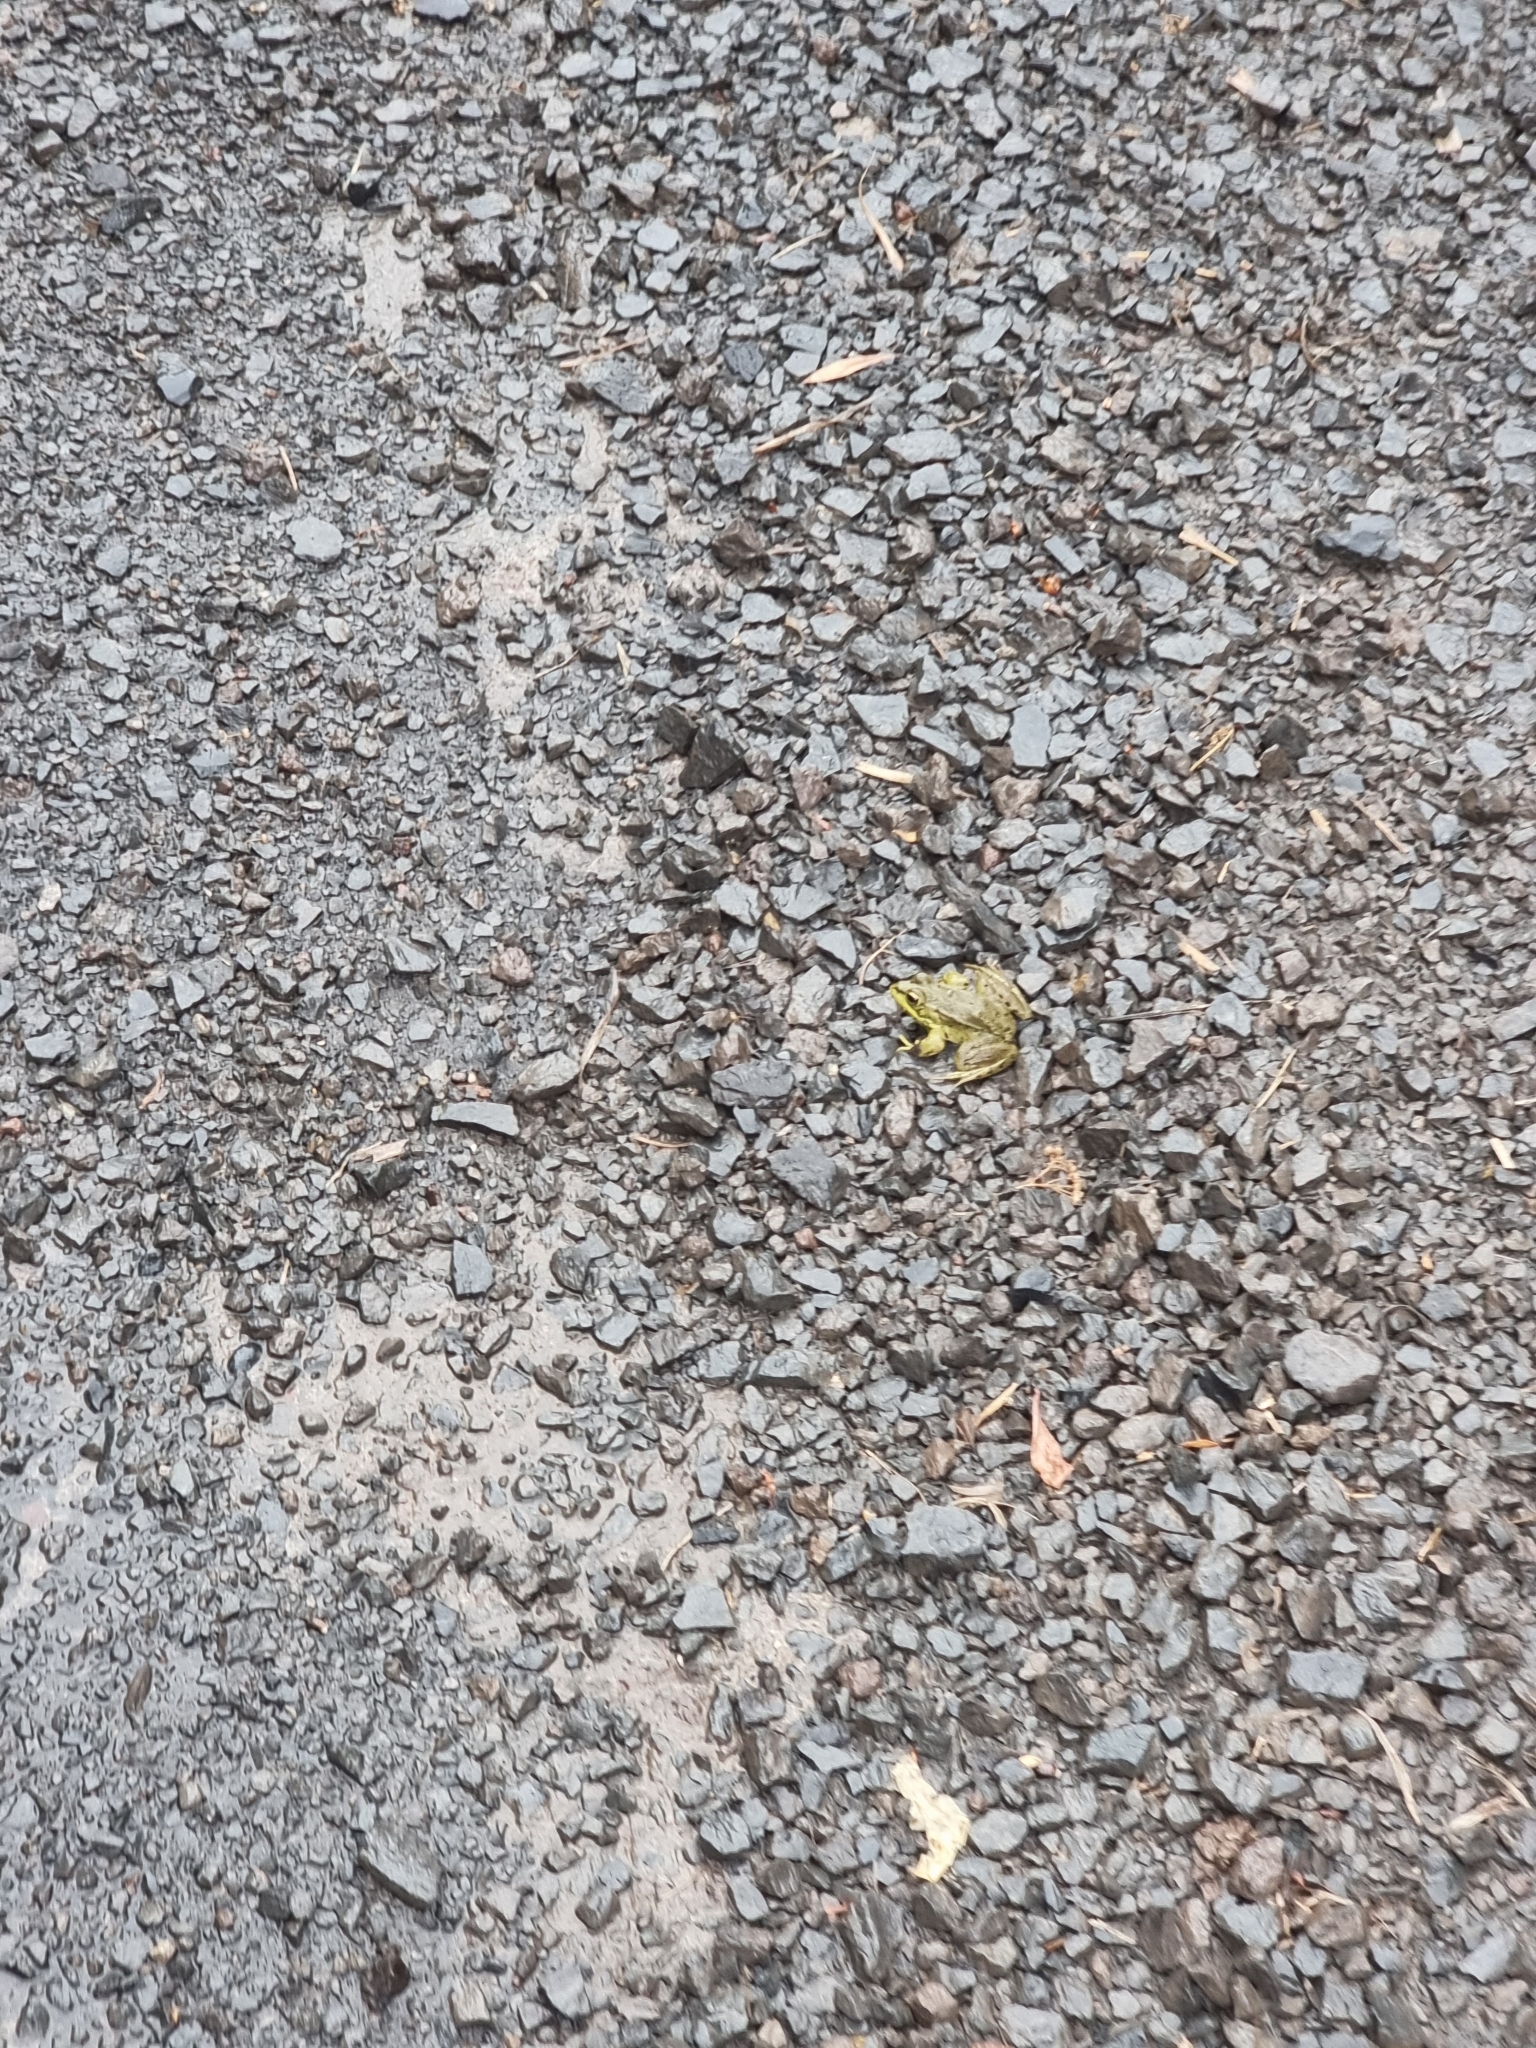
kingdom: Animalia
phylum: Chordata
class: Amphibia
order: Anura
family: Ranidae
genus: Pelophylax
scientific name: Pelophylax perezi
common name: Perez's frog
